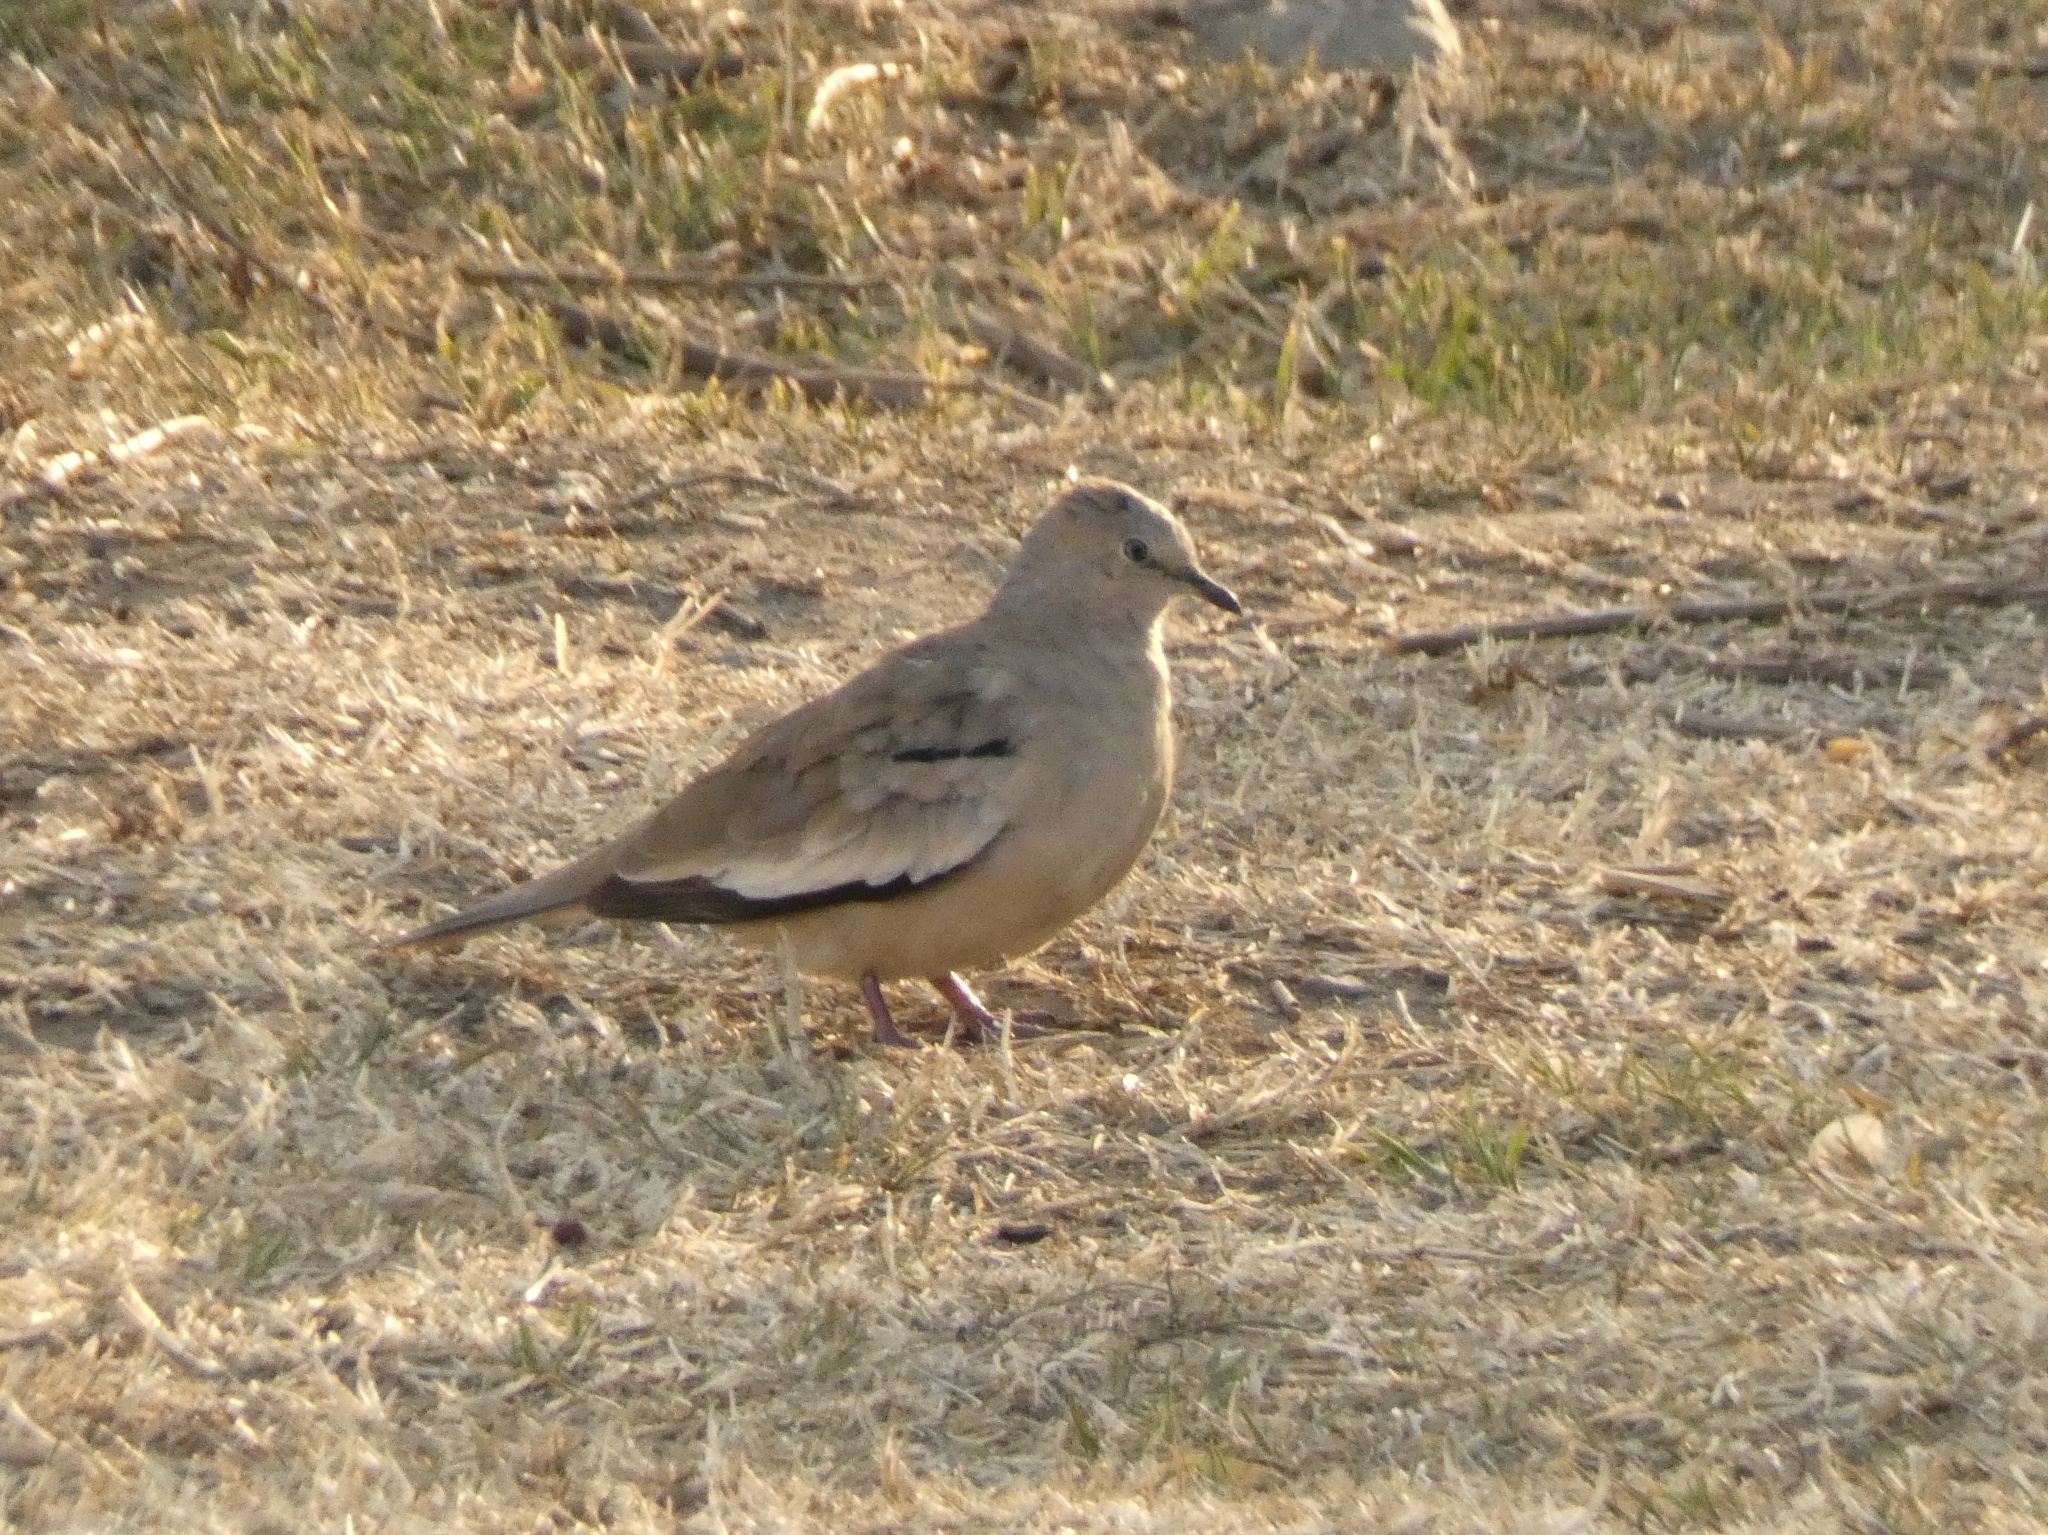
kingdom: Animalia
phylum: Chordata
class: Aves
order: Columbiformes
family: Columbidae
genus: Columbina
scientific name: Columbina picui
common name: Picui ground dove
